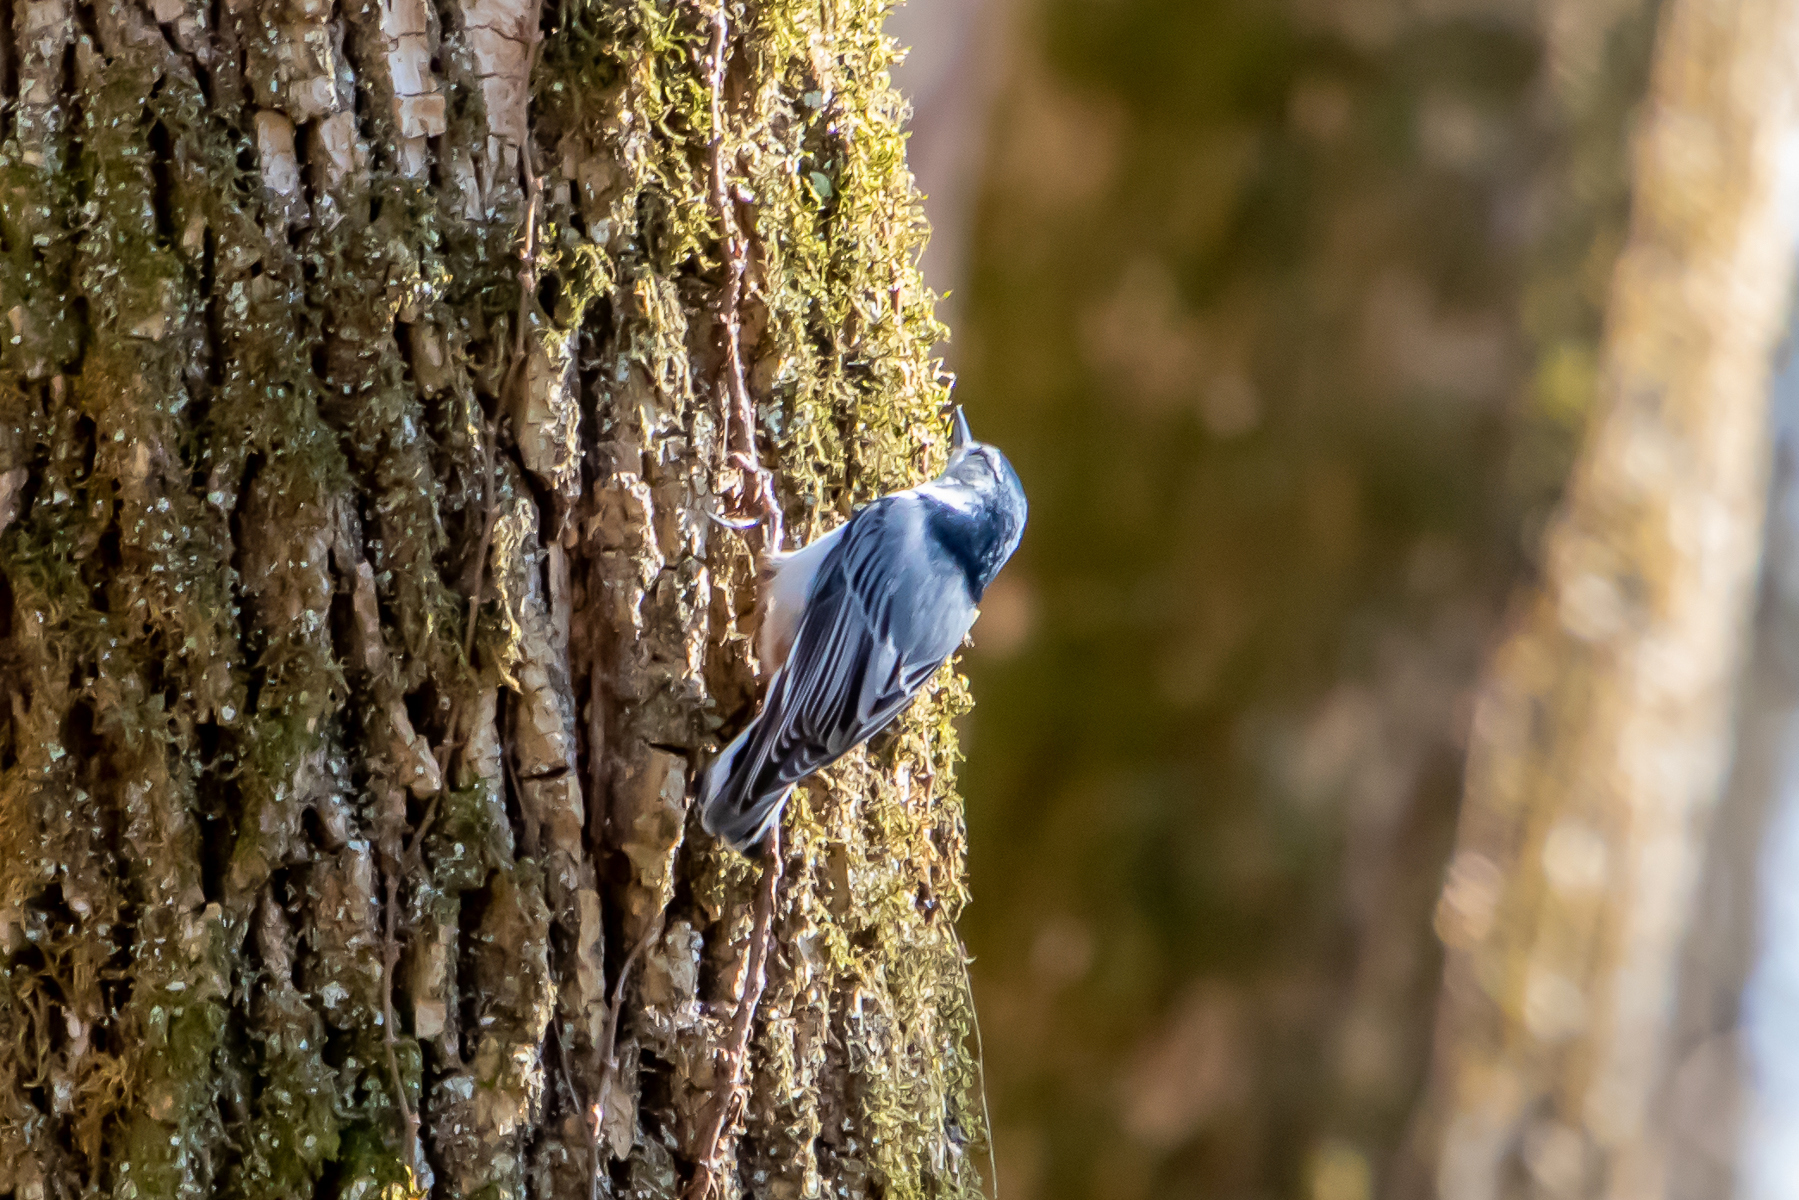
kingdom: Animalia
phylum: Chordata
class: Aves
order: Passeriformes
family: Sittidae
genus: Sitta
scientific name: Sitta carolinensis
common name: White-breasted nuthatch
